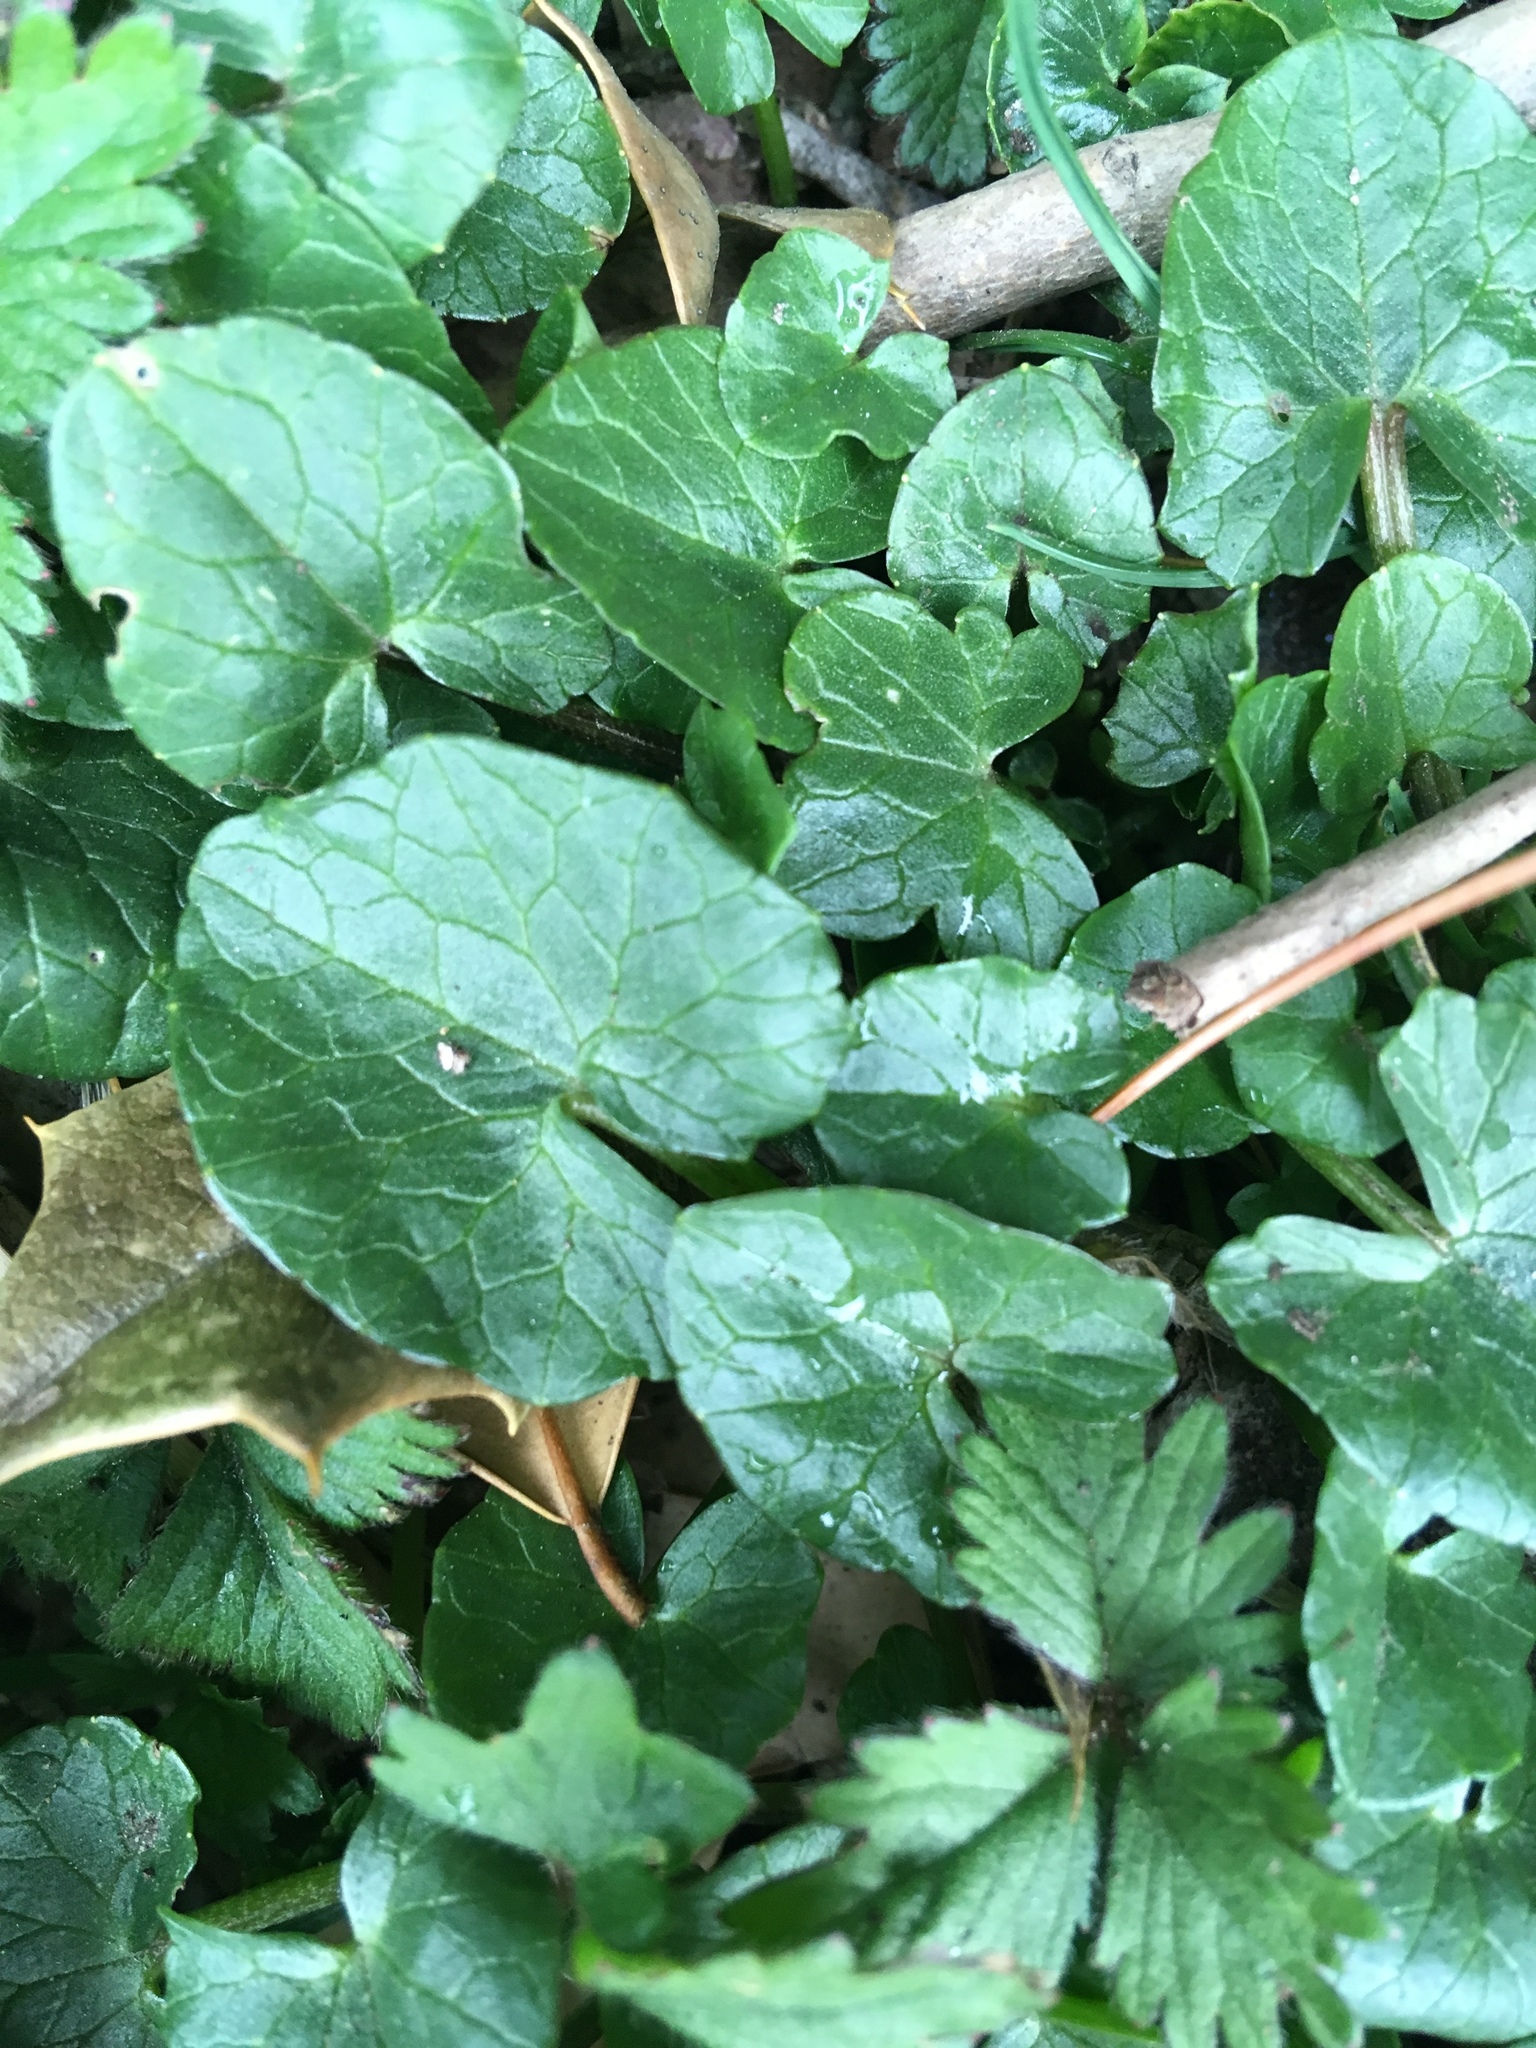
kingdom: Plantae
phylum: Tracheophyta
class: Magnoliopsida
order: Ranunculales
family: Ranunculaceae
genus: Ficaria
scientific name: Ficaria verna
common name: Lesser celandine
